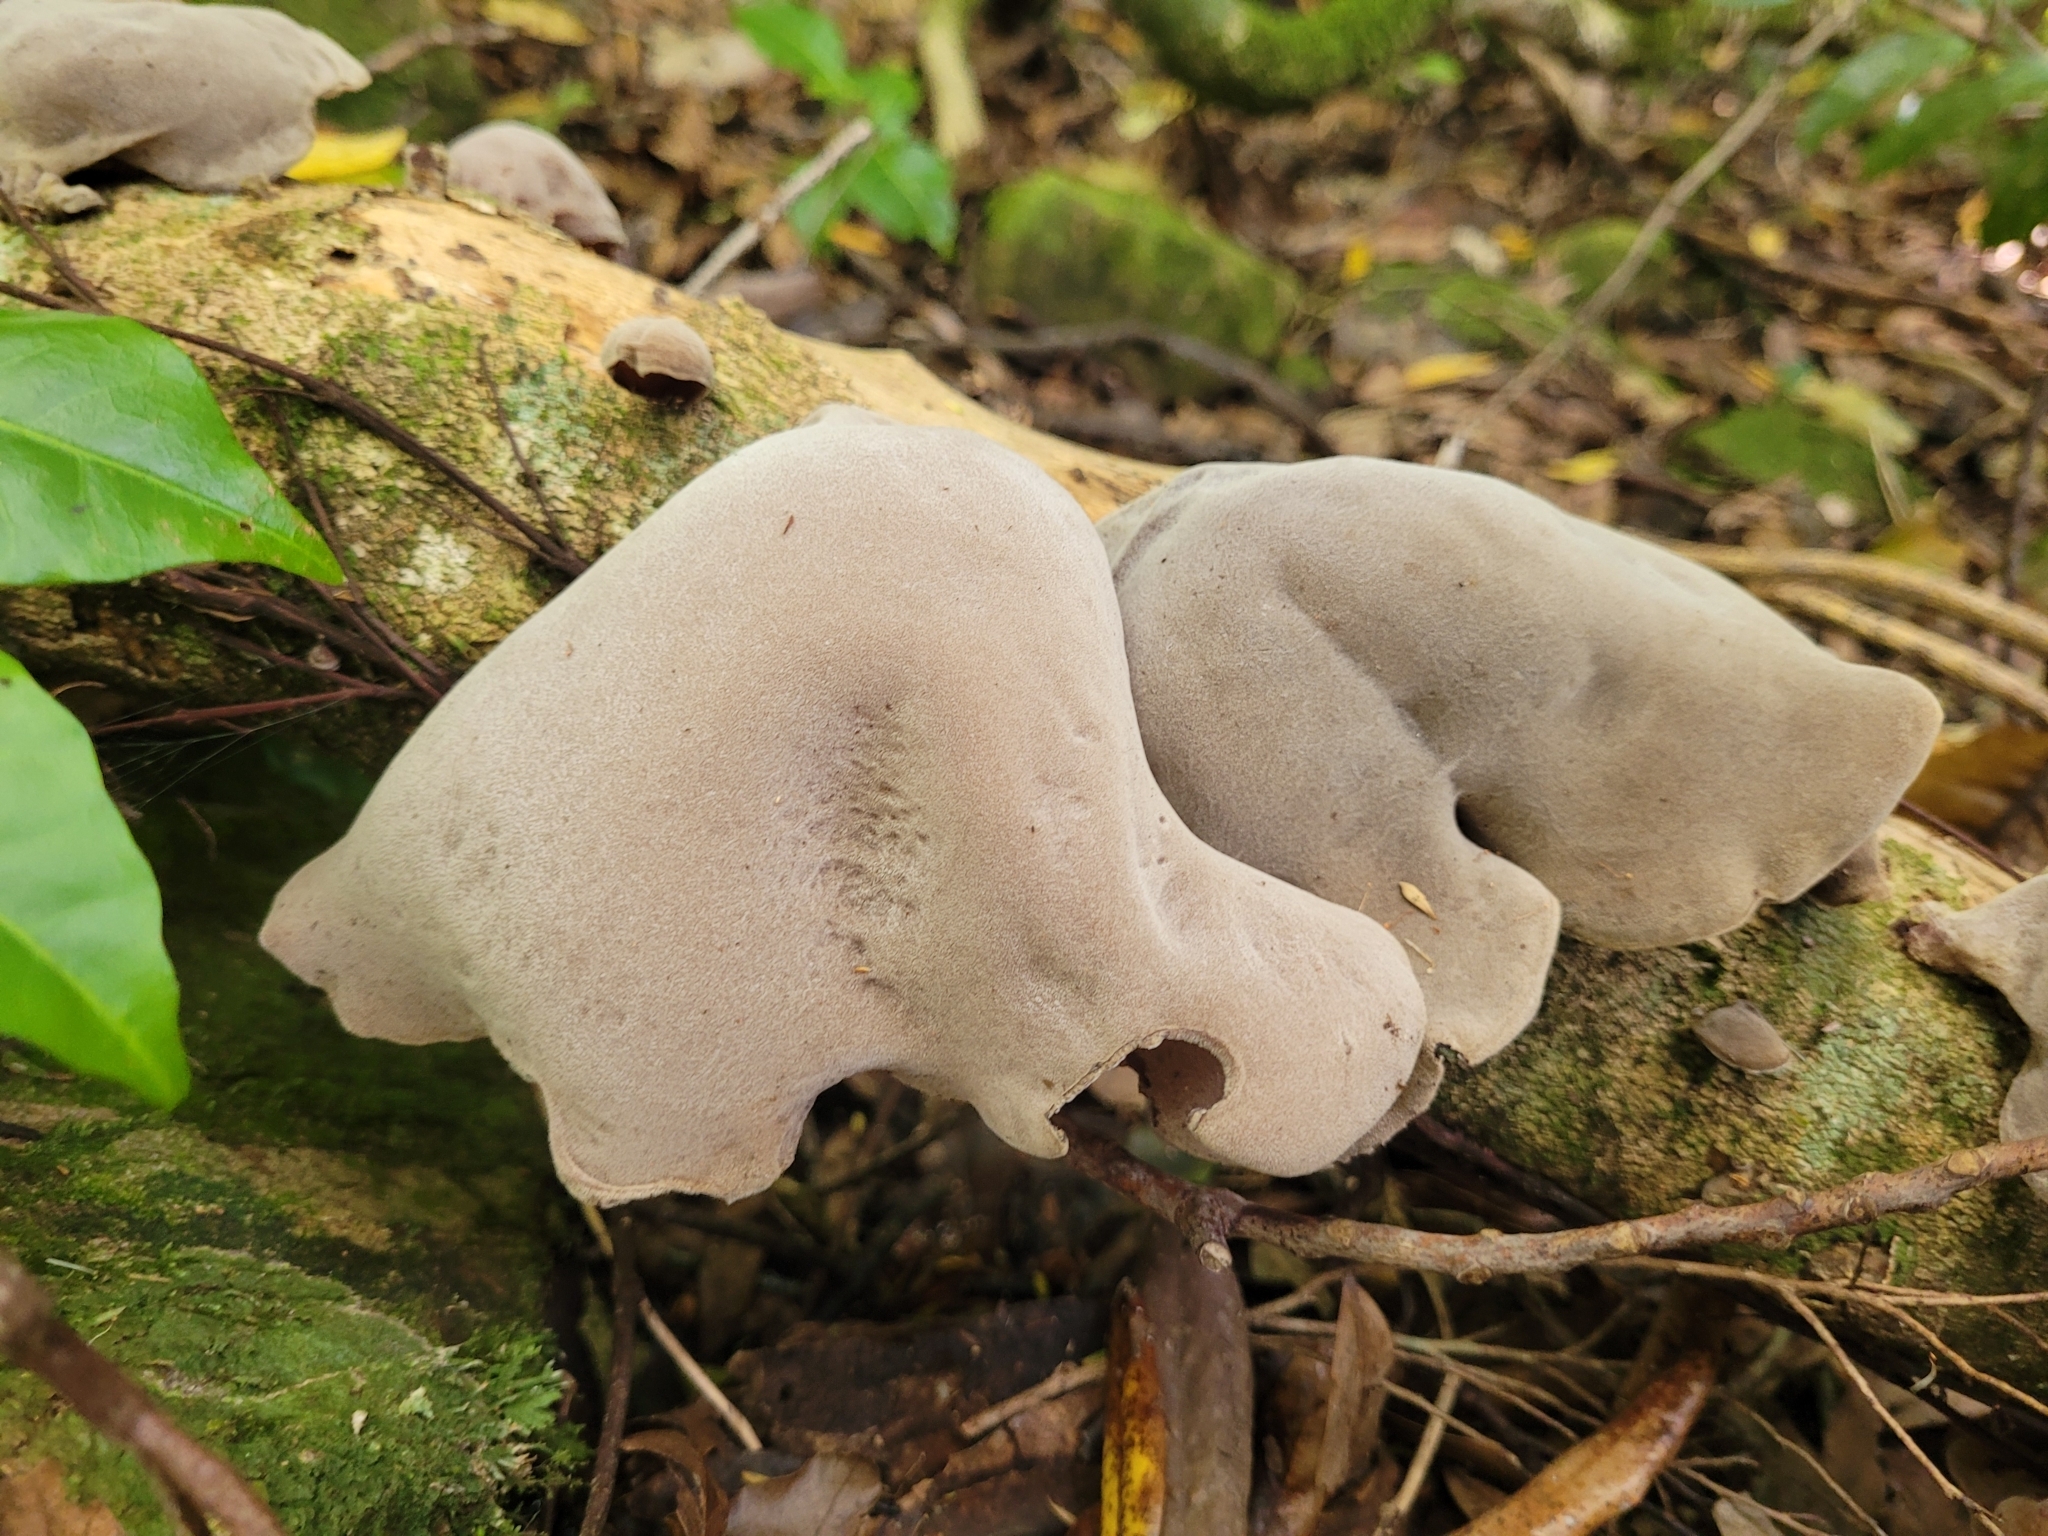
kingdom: Fungi
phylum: Basidiomycota
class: Agaricomycetes
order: Auriculariales
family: Auriculariaceae
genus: Auricularia
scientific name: Auricularia cornea
